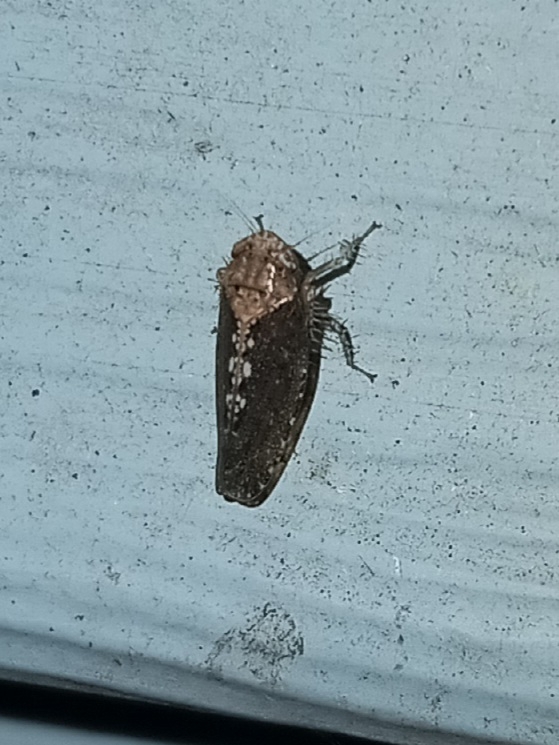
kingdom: Animalia
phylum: Arthropoda
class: Insecta
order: Hemiptera
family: Cicadellidae
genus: Excultanus
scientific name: Excultanus excultus
